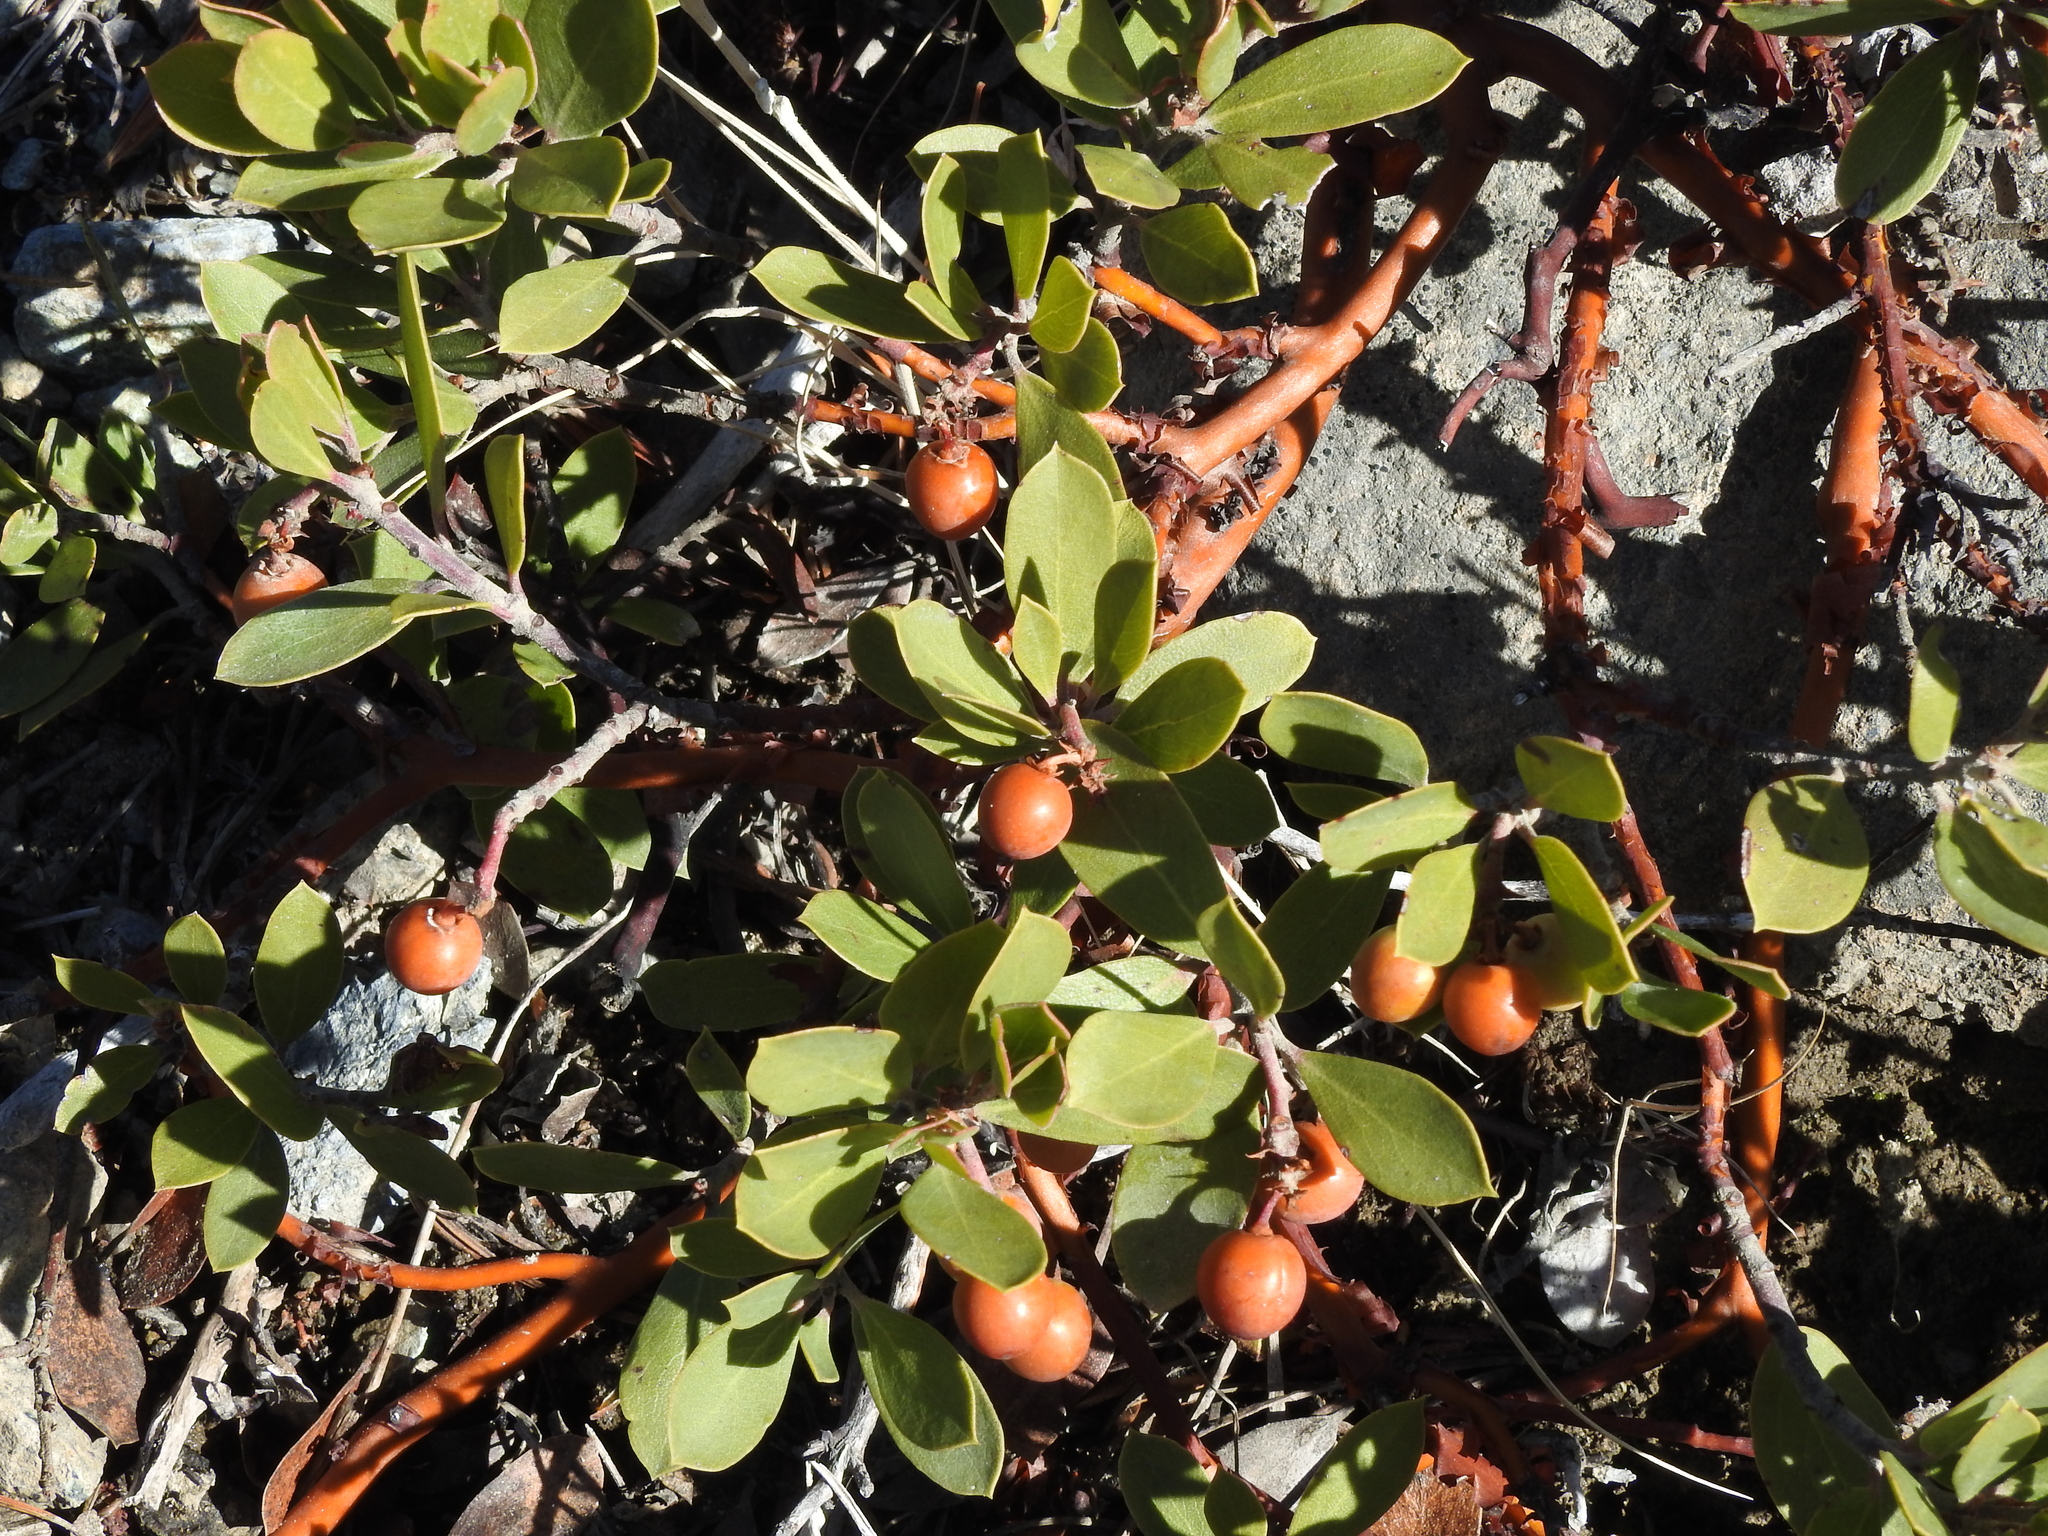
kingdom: Plantae
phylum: Tracheophyta
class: Magnoliopsida
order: Ericales
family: Ericaceae
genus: Arctostaphylos
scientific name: Arctostaphylos nevadensis
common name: Pinemat manzanita
